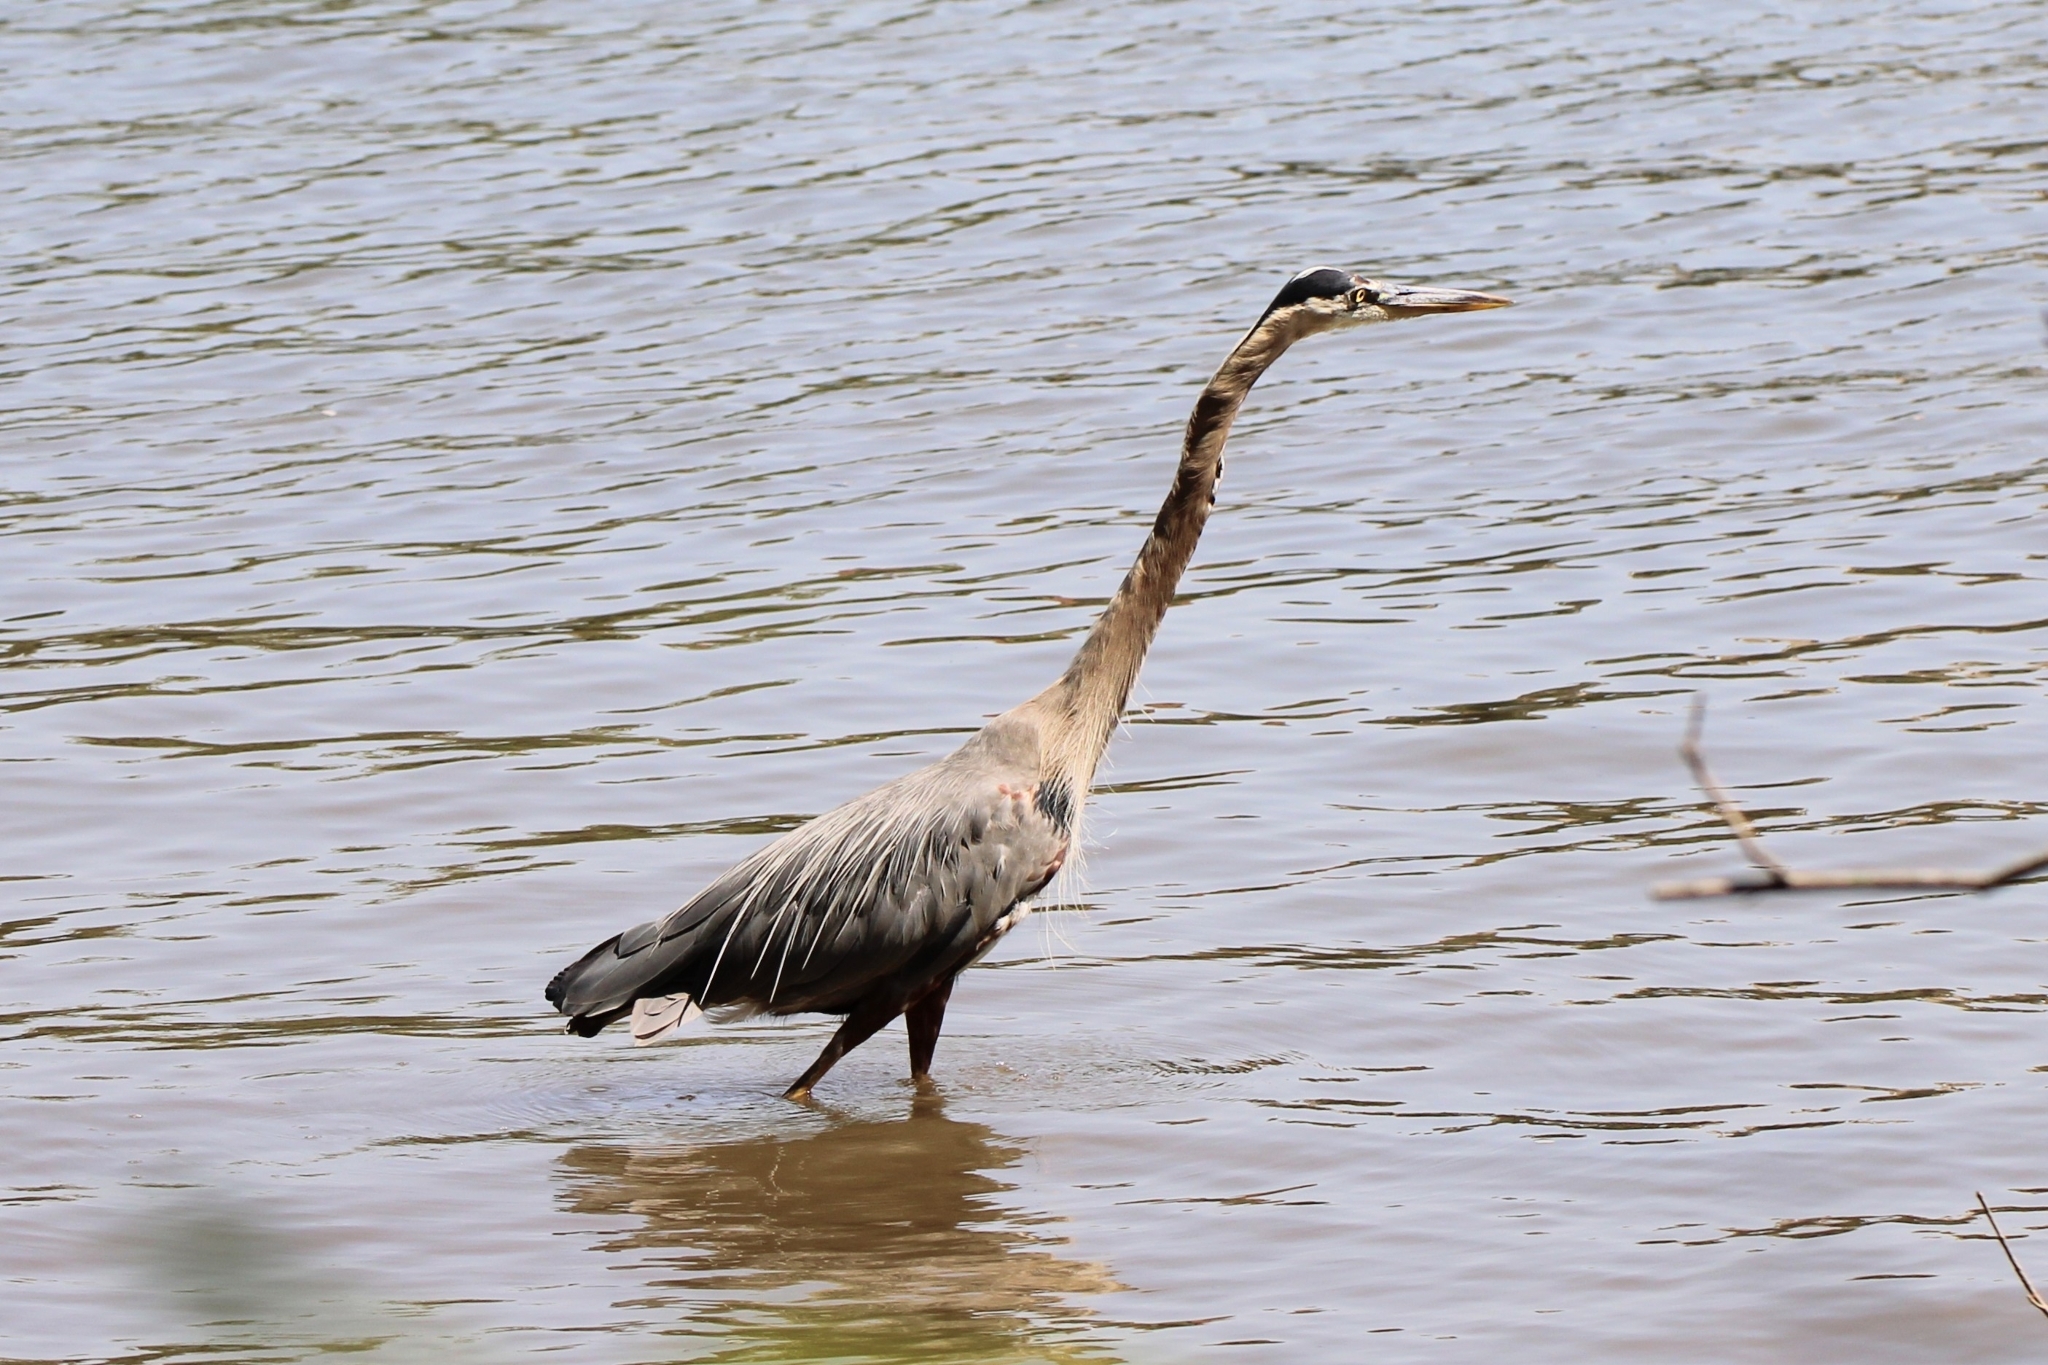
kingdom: Animalia
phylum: Chordata
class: Aves
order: Pelecaniformes
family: Ardeidae
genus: Ardea
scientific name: Ardea herodias
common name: Great blue heron
